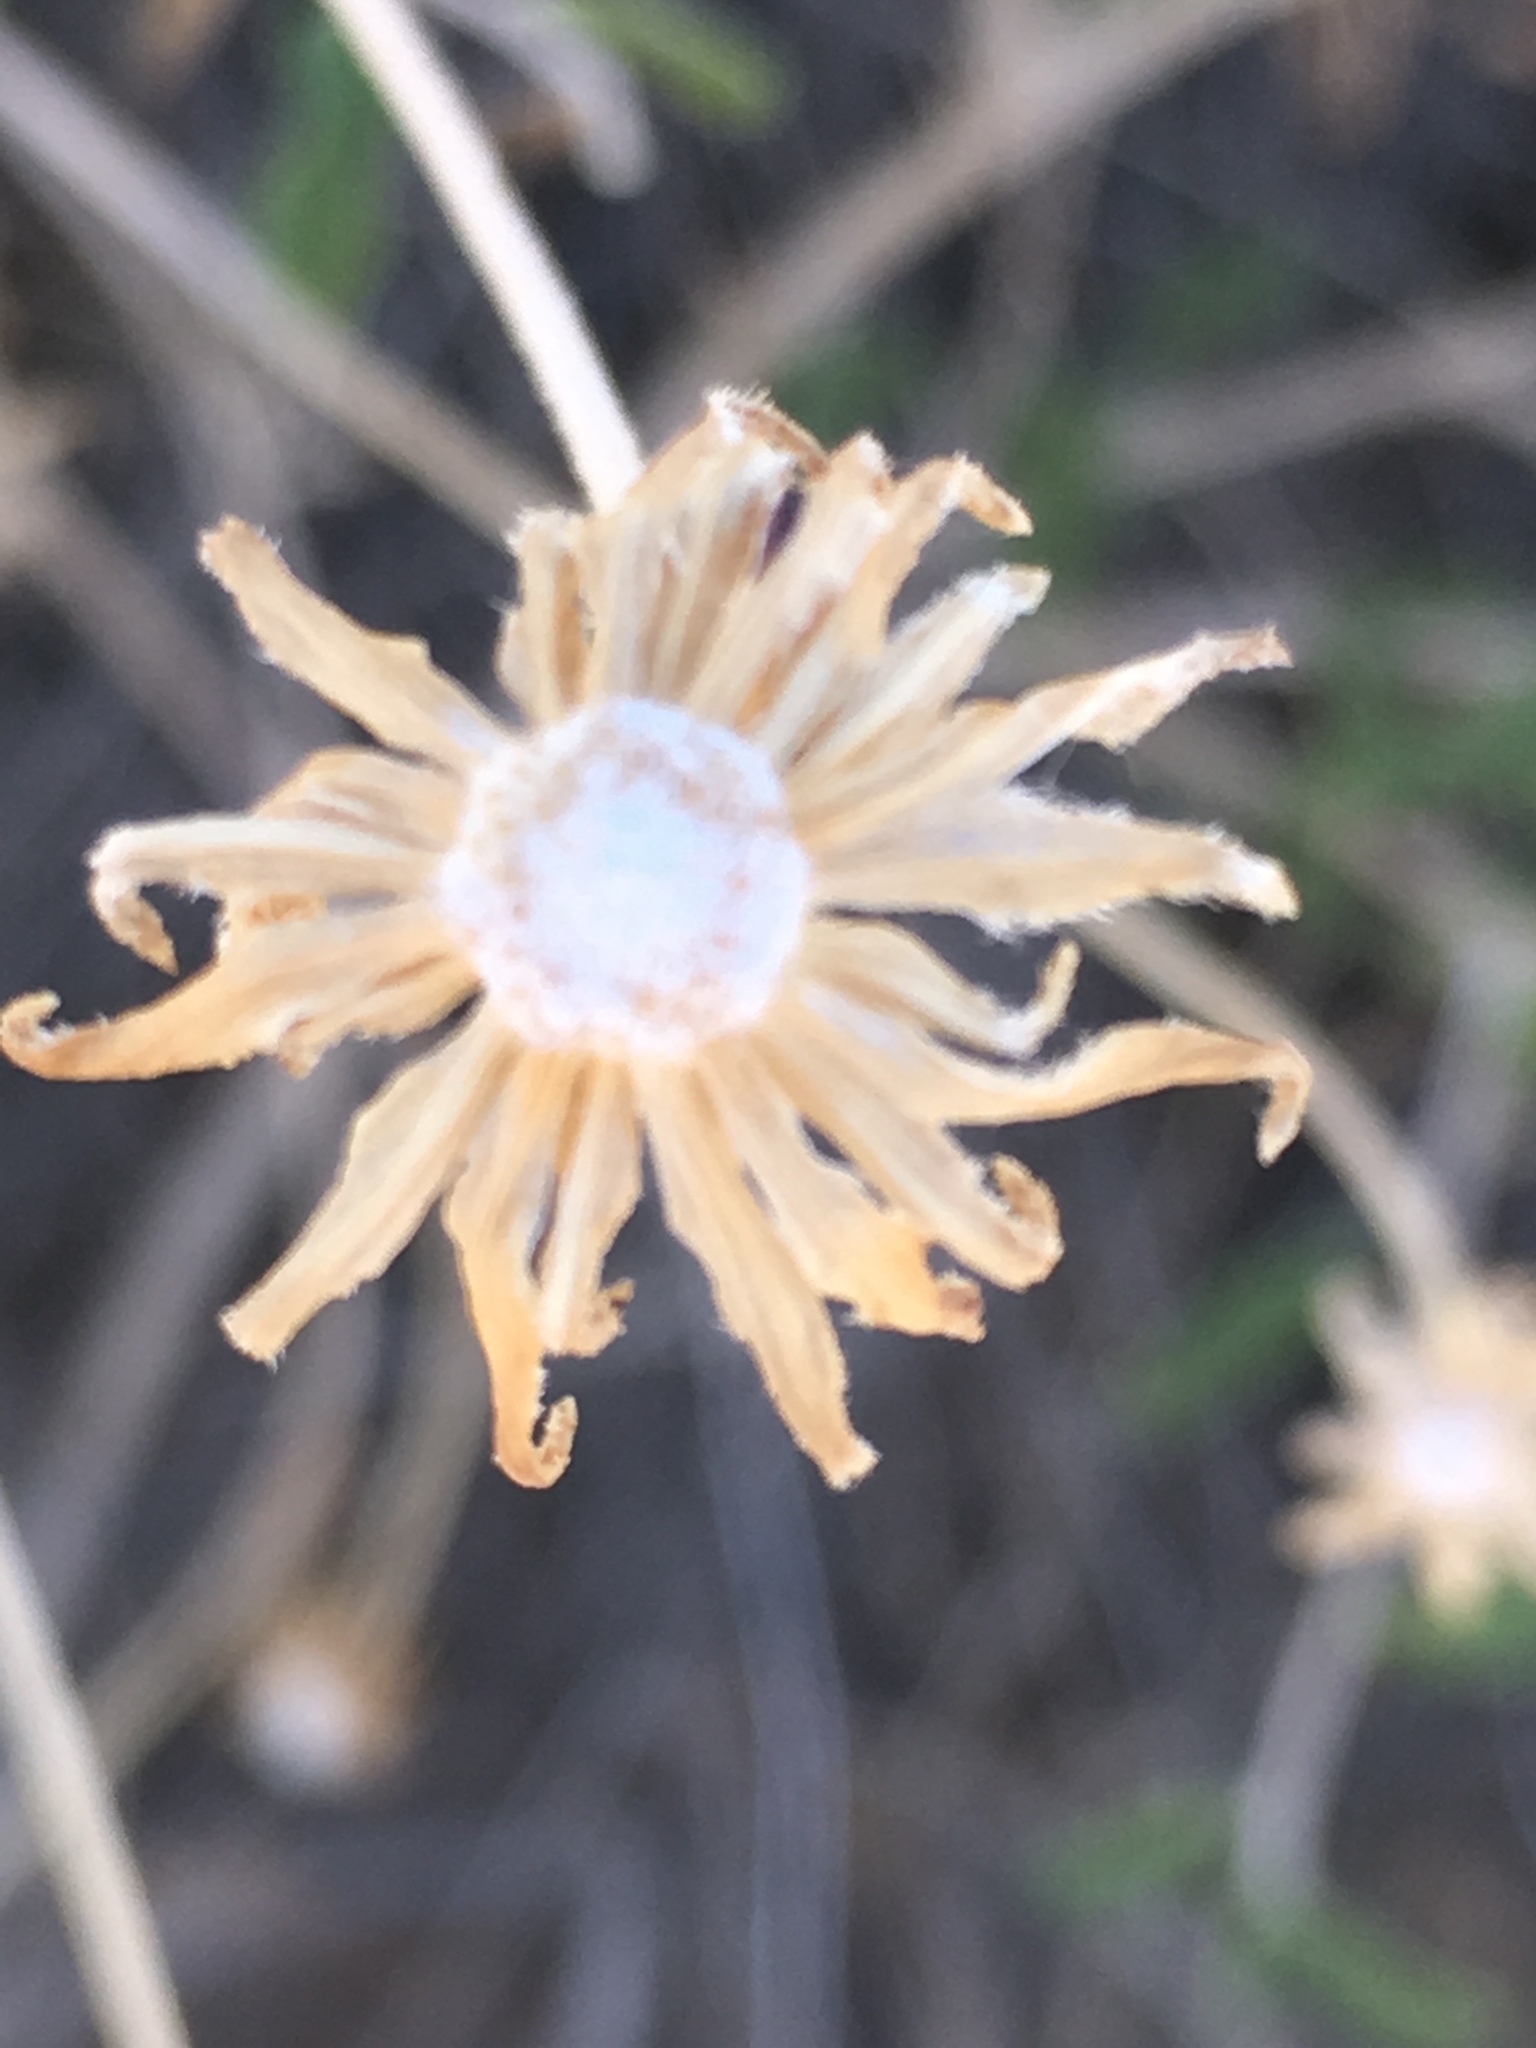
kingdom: Plantae
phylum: Tracheophyta
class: Magnoliopsida
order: Asterales
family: Asteraceae
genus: Encelia
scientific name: Encelia frutescens
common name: Bush encelia
